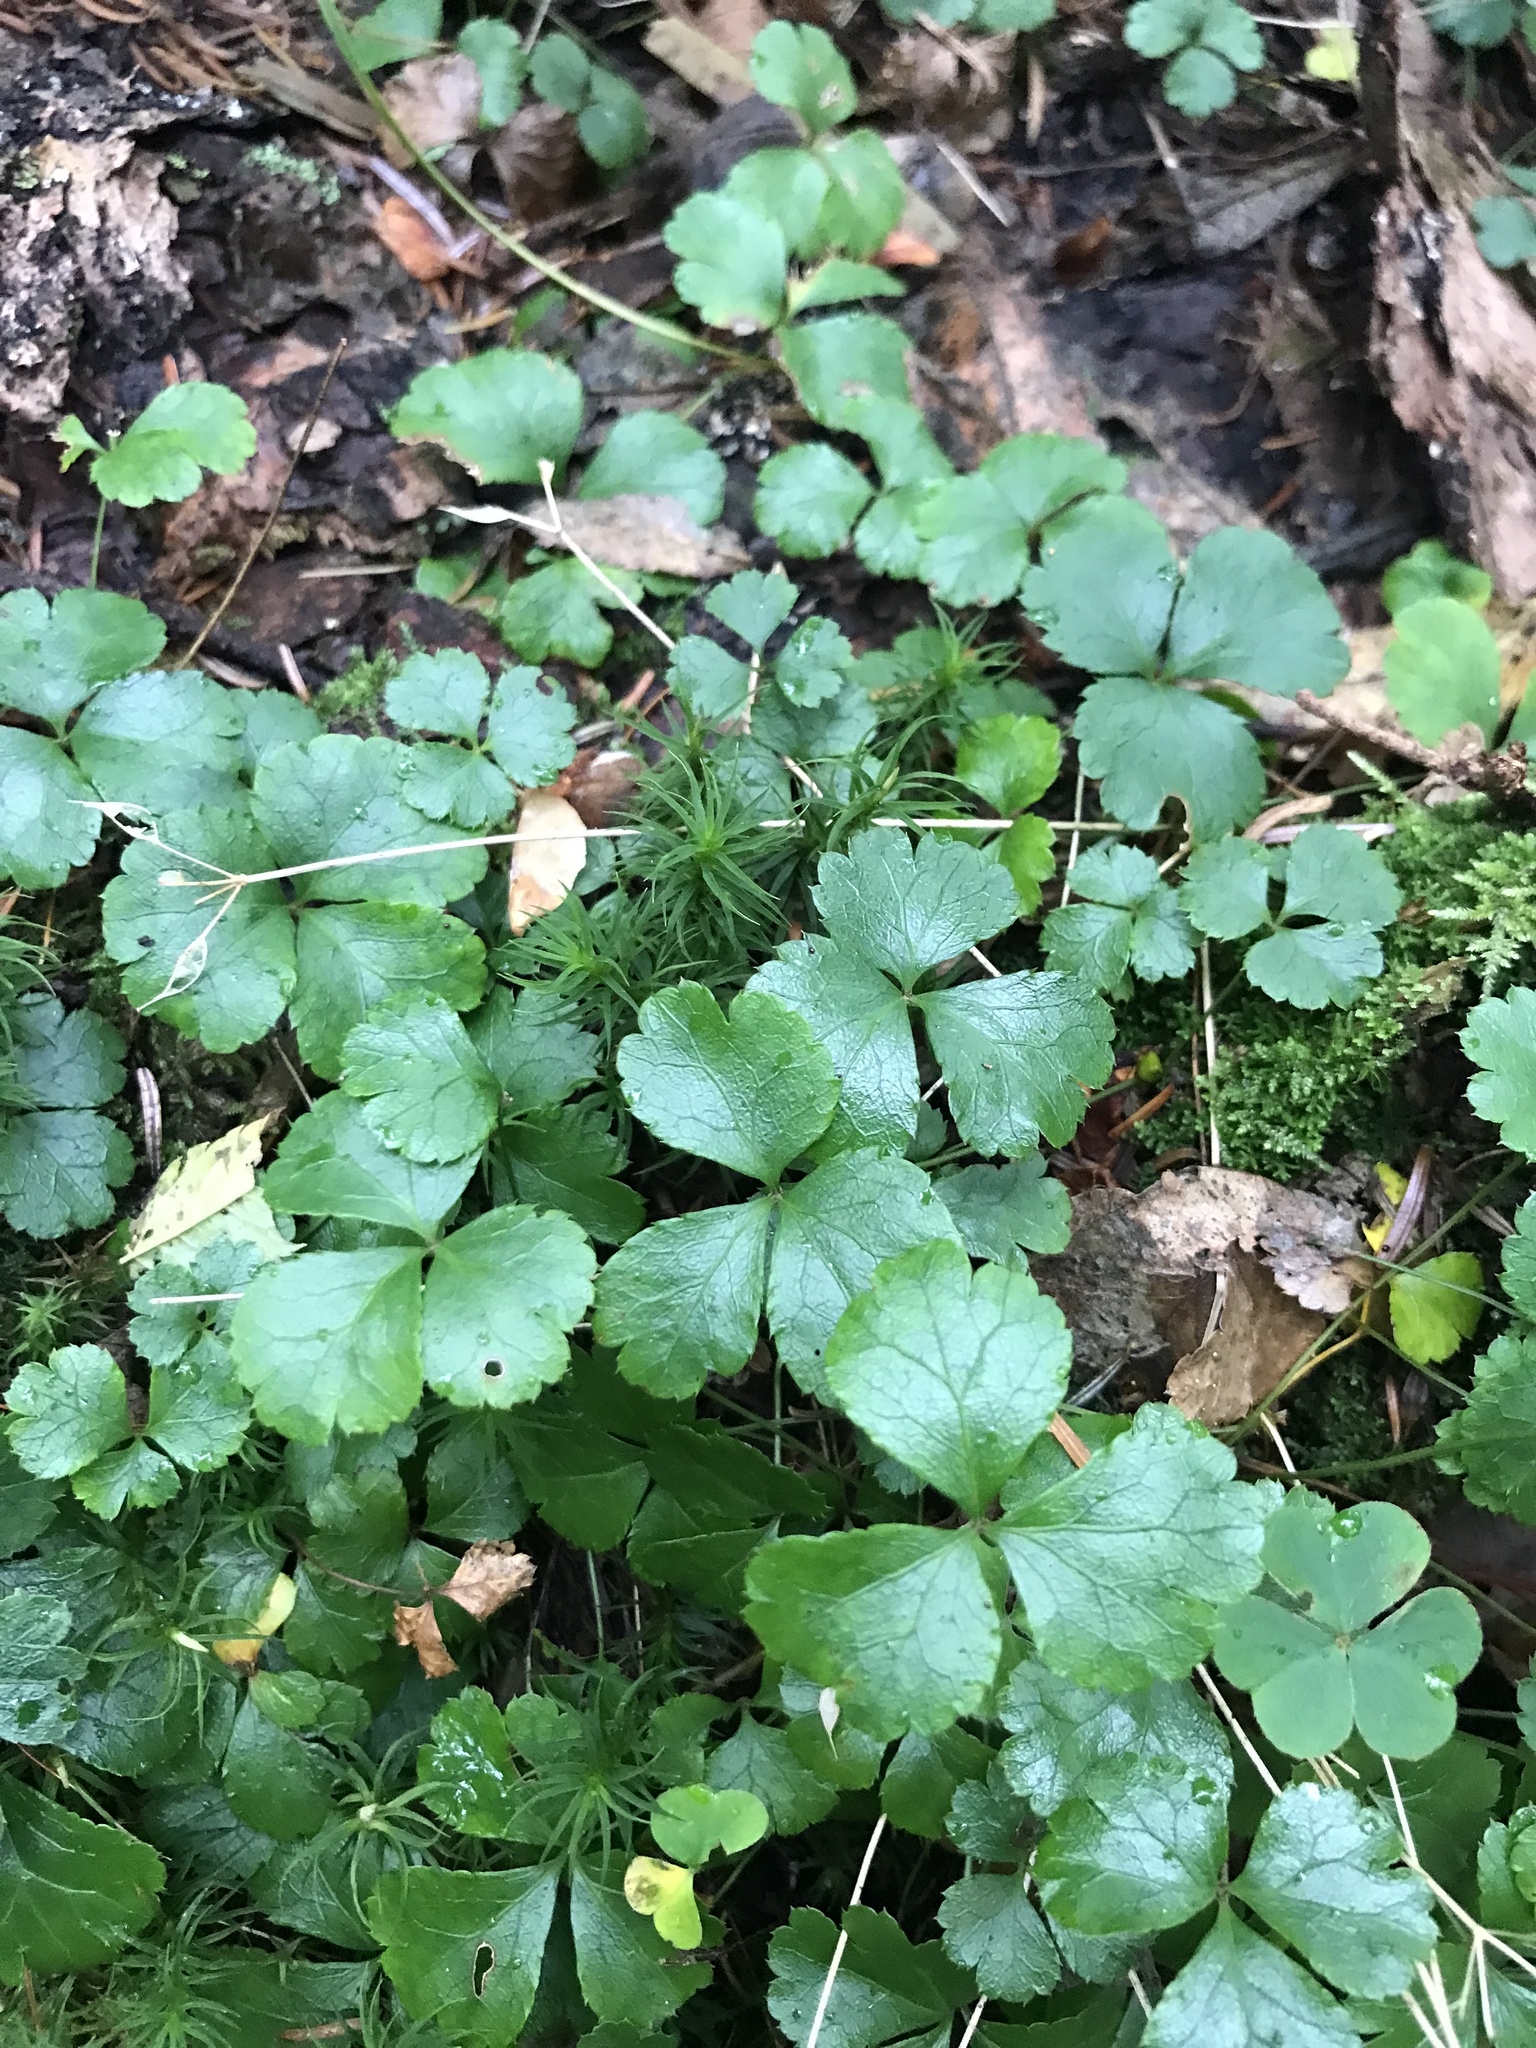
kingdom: Plantae
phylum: Tracheophyta
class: Magnoliopsida
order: Ranunculales
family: Ranunculaceae
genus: Coptis
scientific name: Coptis trifolia
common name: Canker-root
